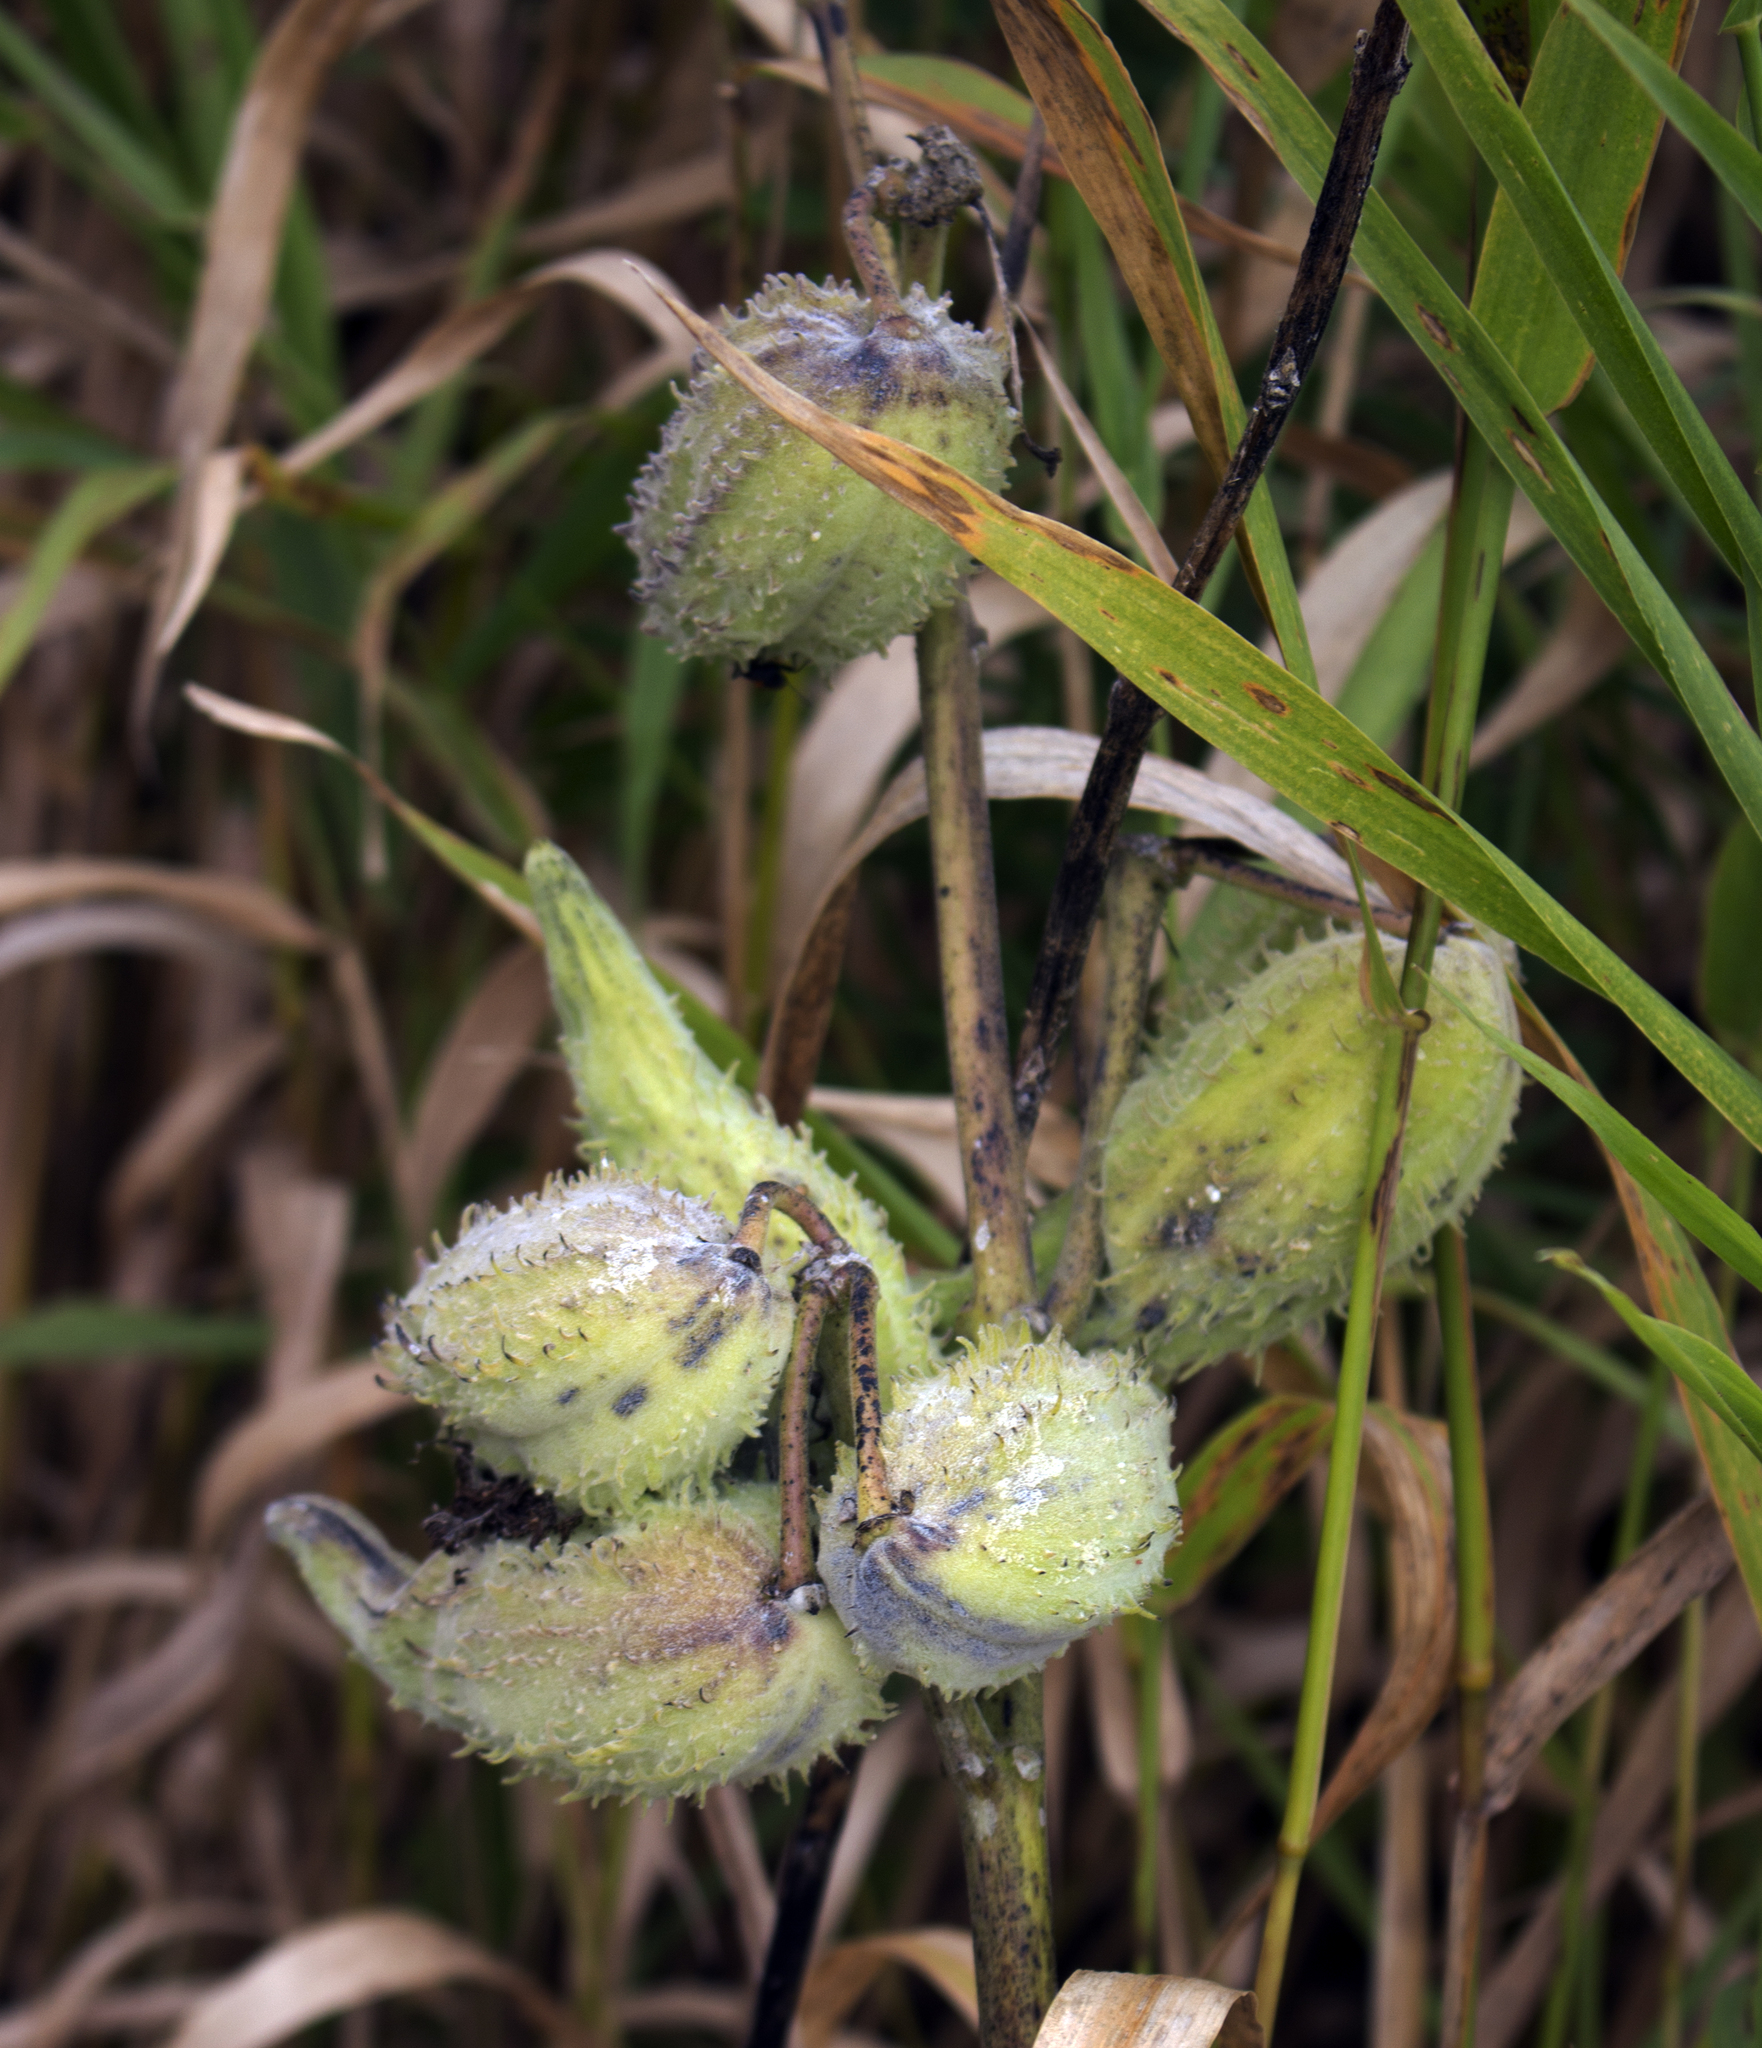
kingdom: Plantae
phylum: Tracheophyta
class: Magnoliopsida
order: Gentianales
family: Apocynaceae
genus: Asclepias
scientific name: Asclepias syriaca
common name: Common milkweed
